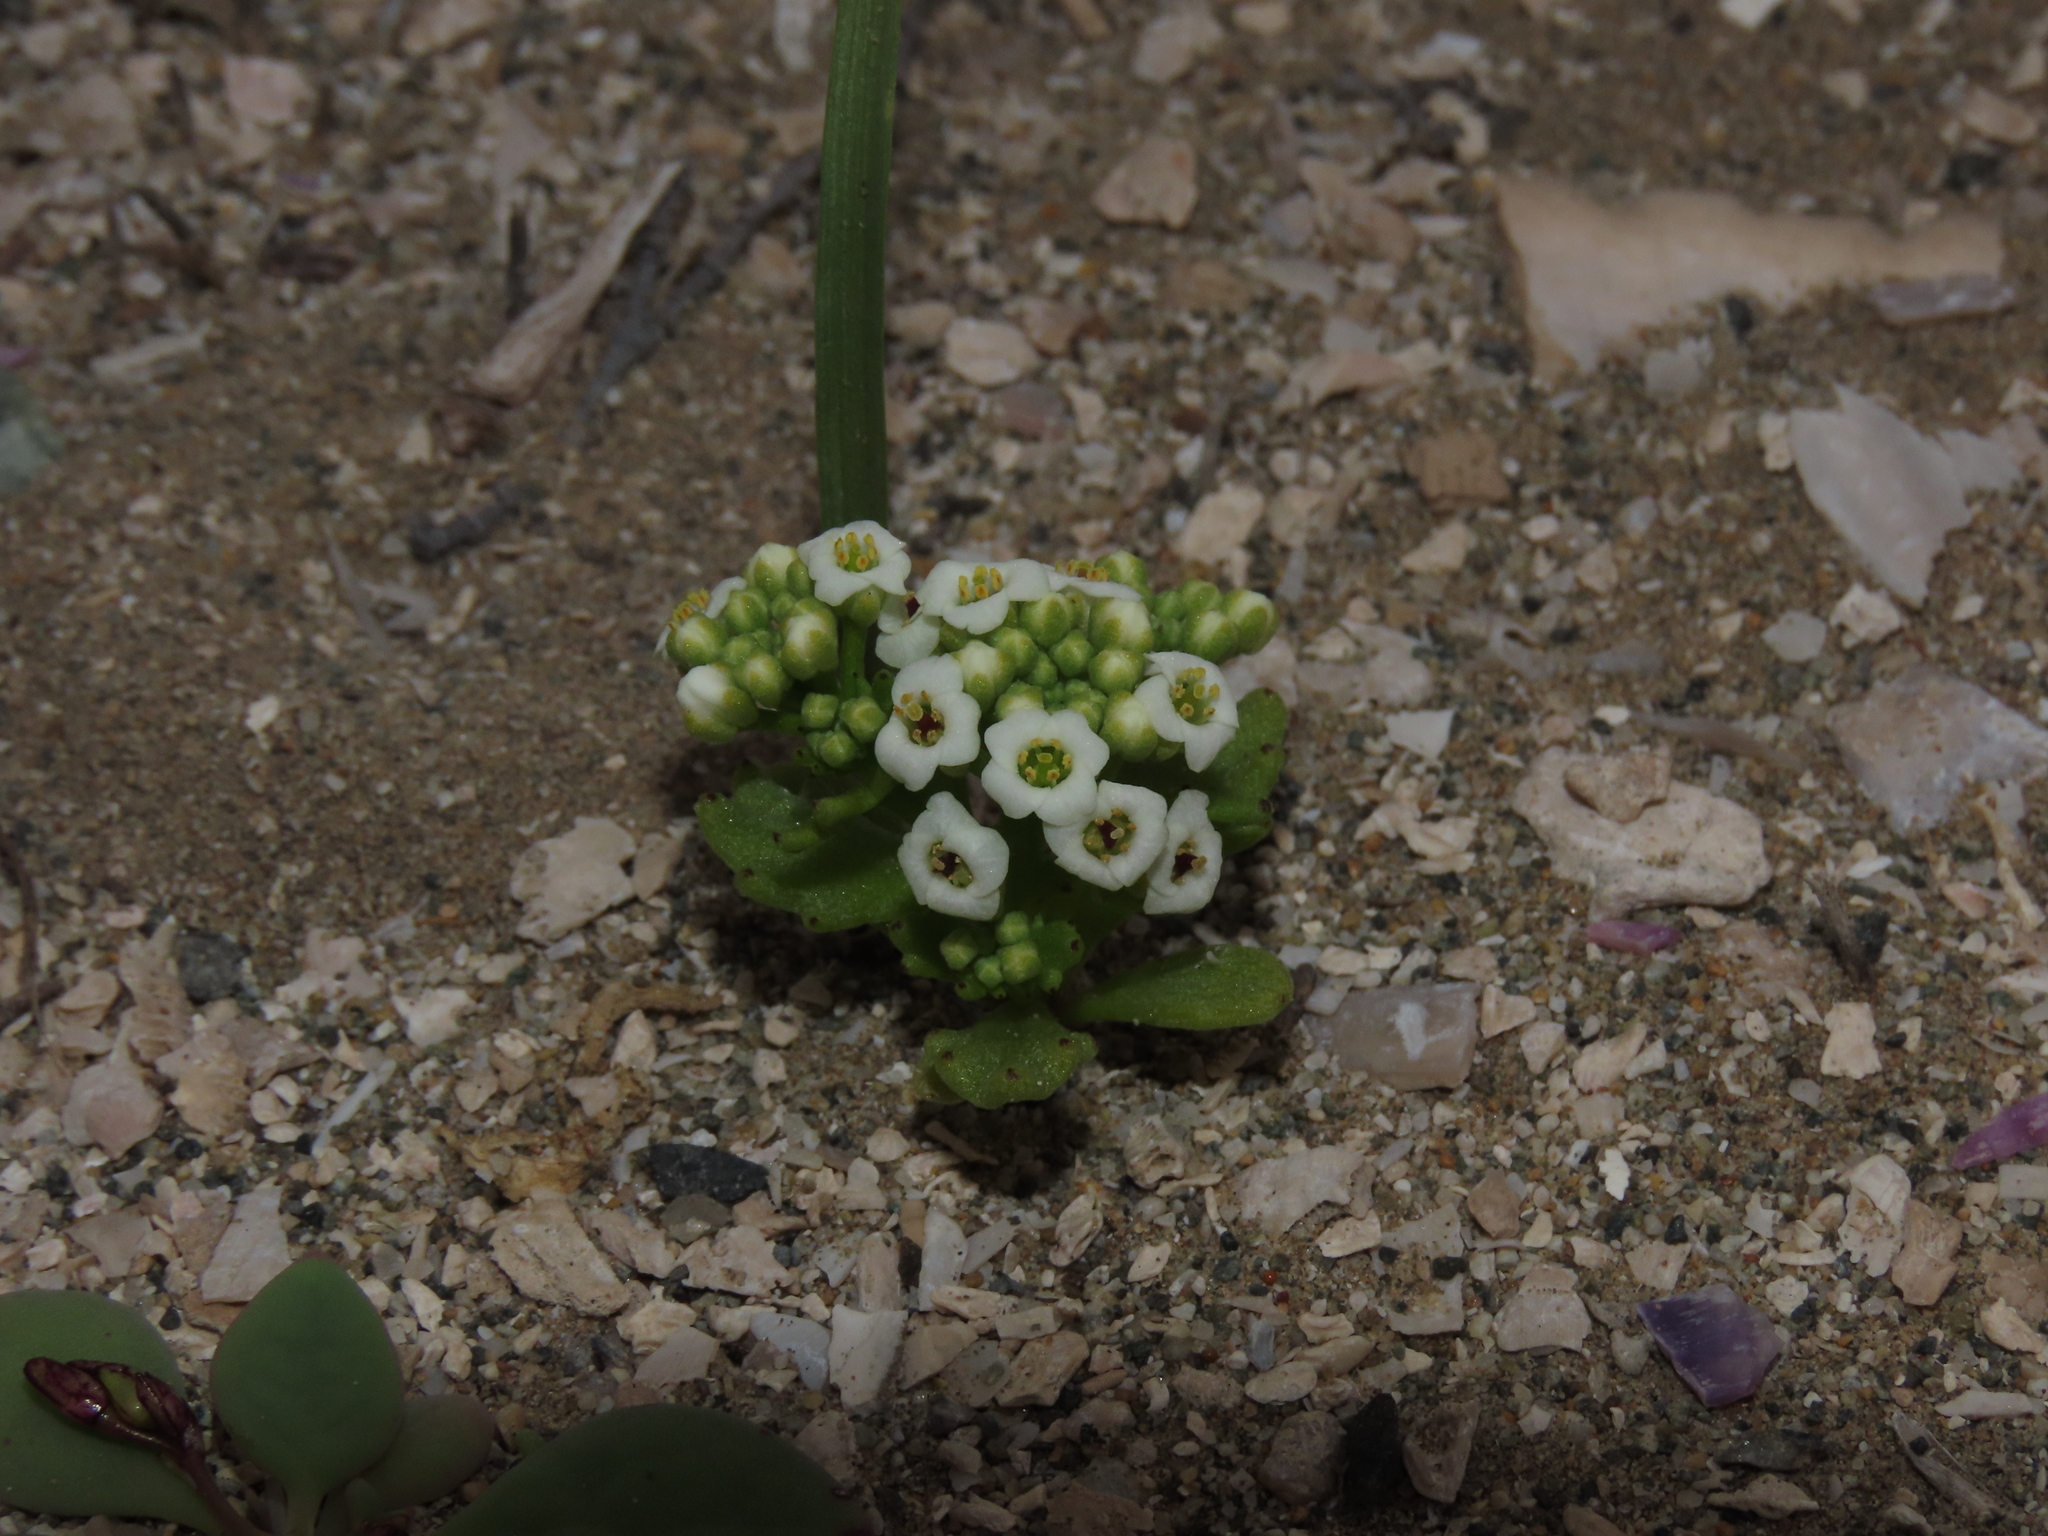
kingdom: Plantae
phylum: Tracheophyta
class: Magnoliopsida
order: Brassicales
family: Brassicaceae
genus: Menonvillea
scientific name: Menonvillea minima
